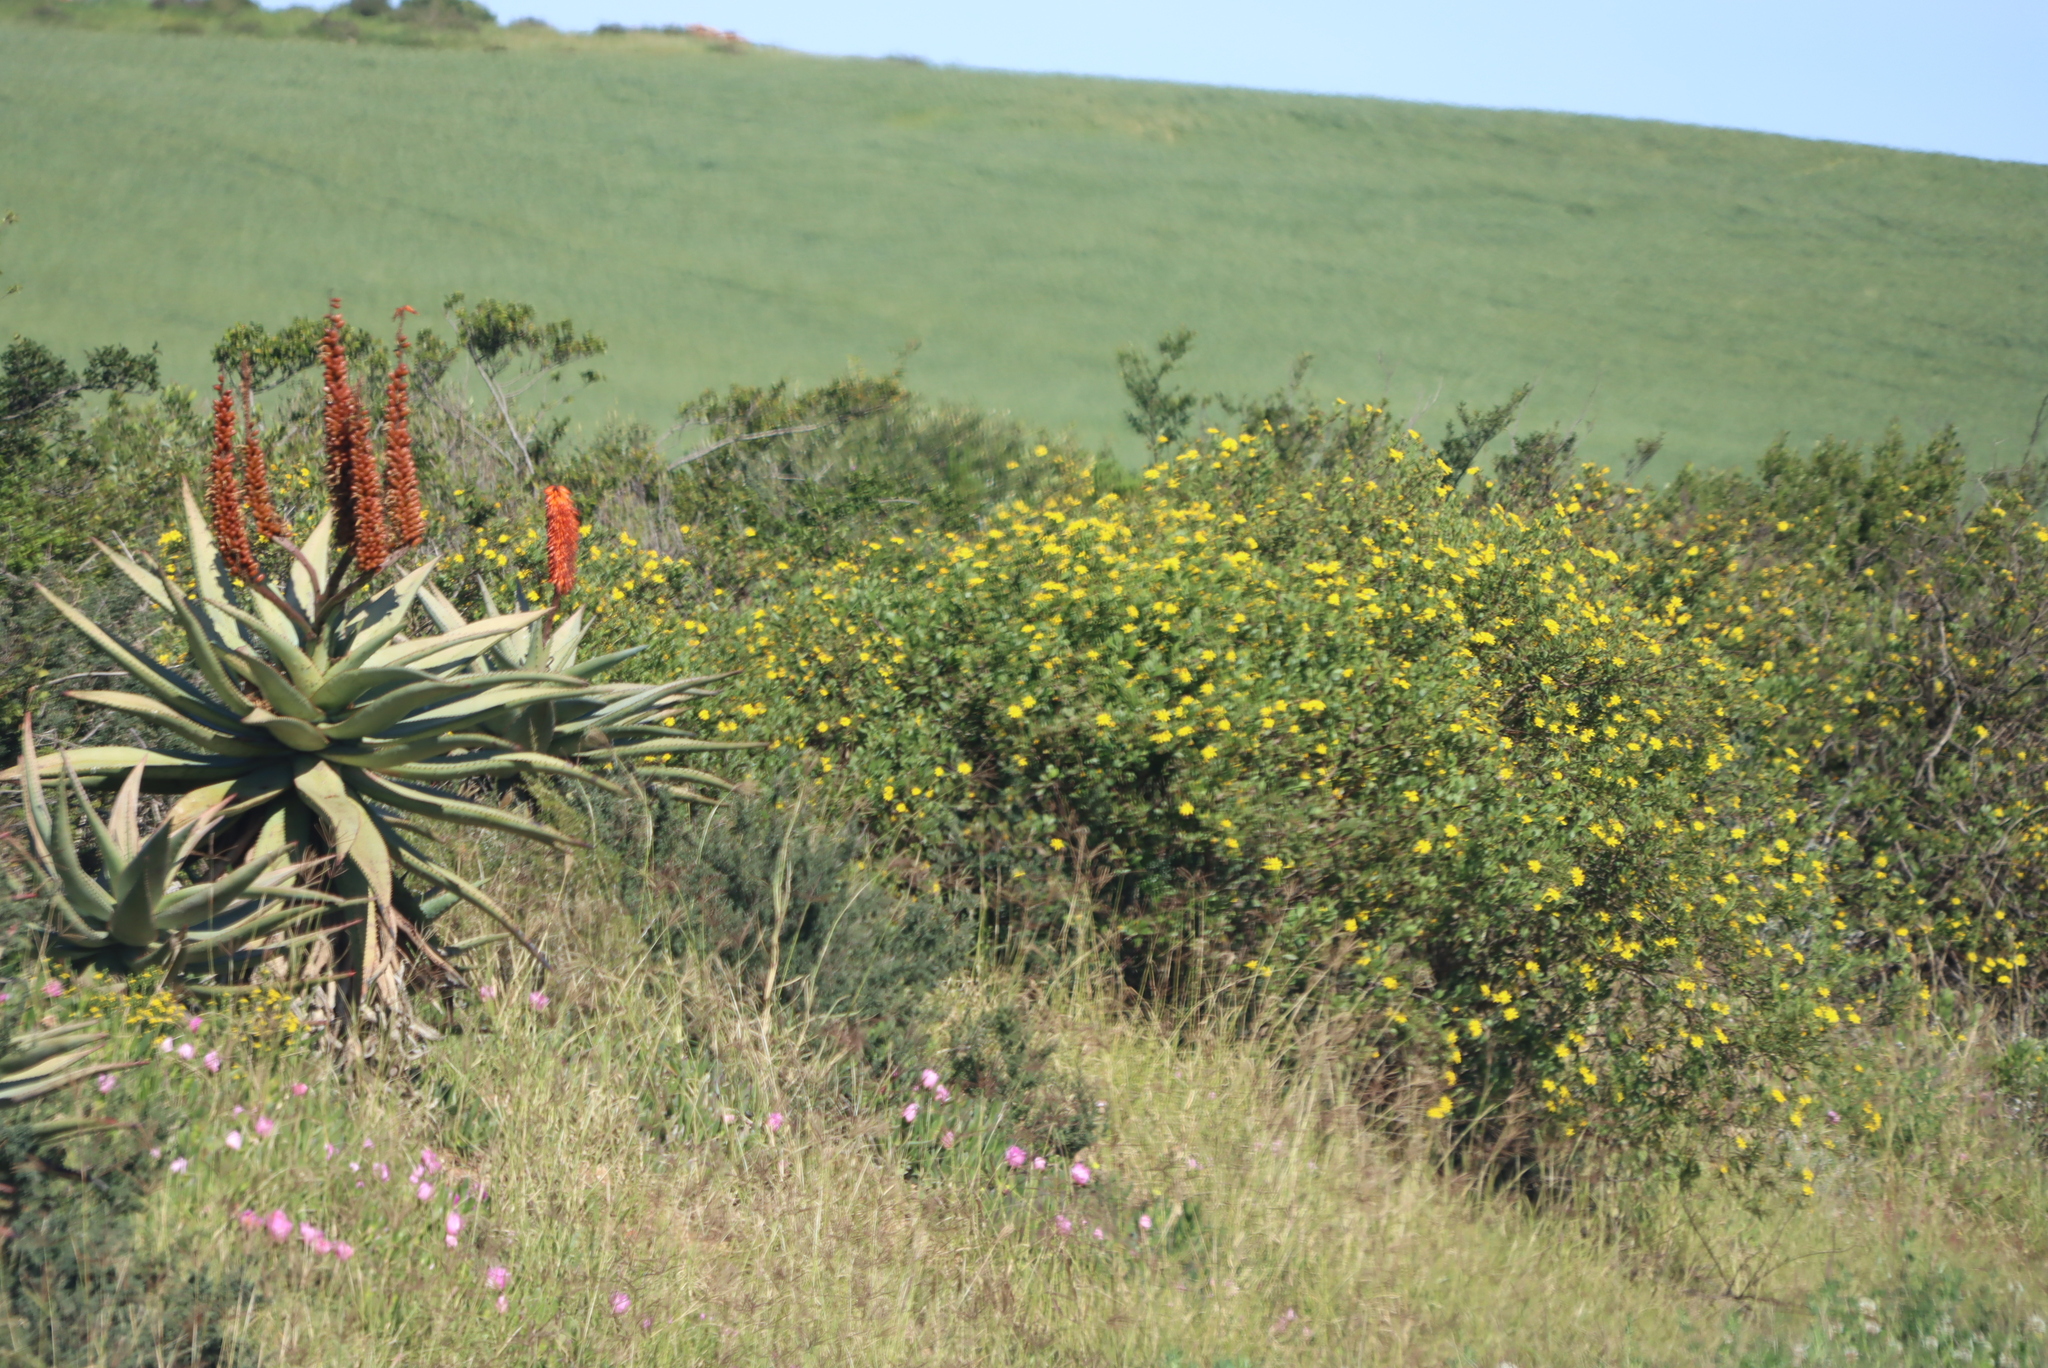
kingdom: Plantae
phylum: Tracheophyta
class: Magnoliopsida
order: Asterales
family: Asteraceae
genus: Osteospermum
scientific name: Osteospermum moniliferum
